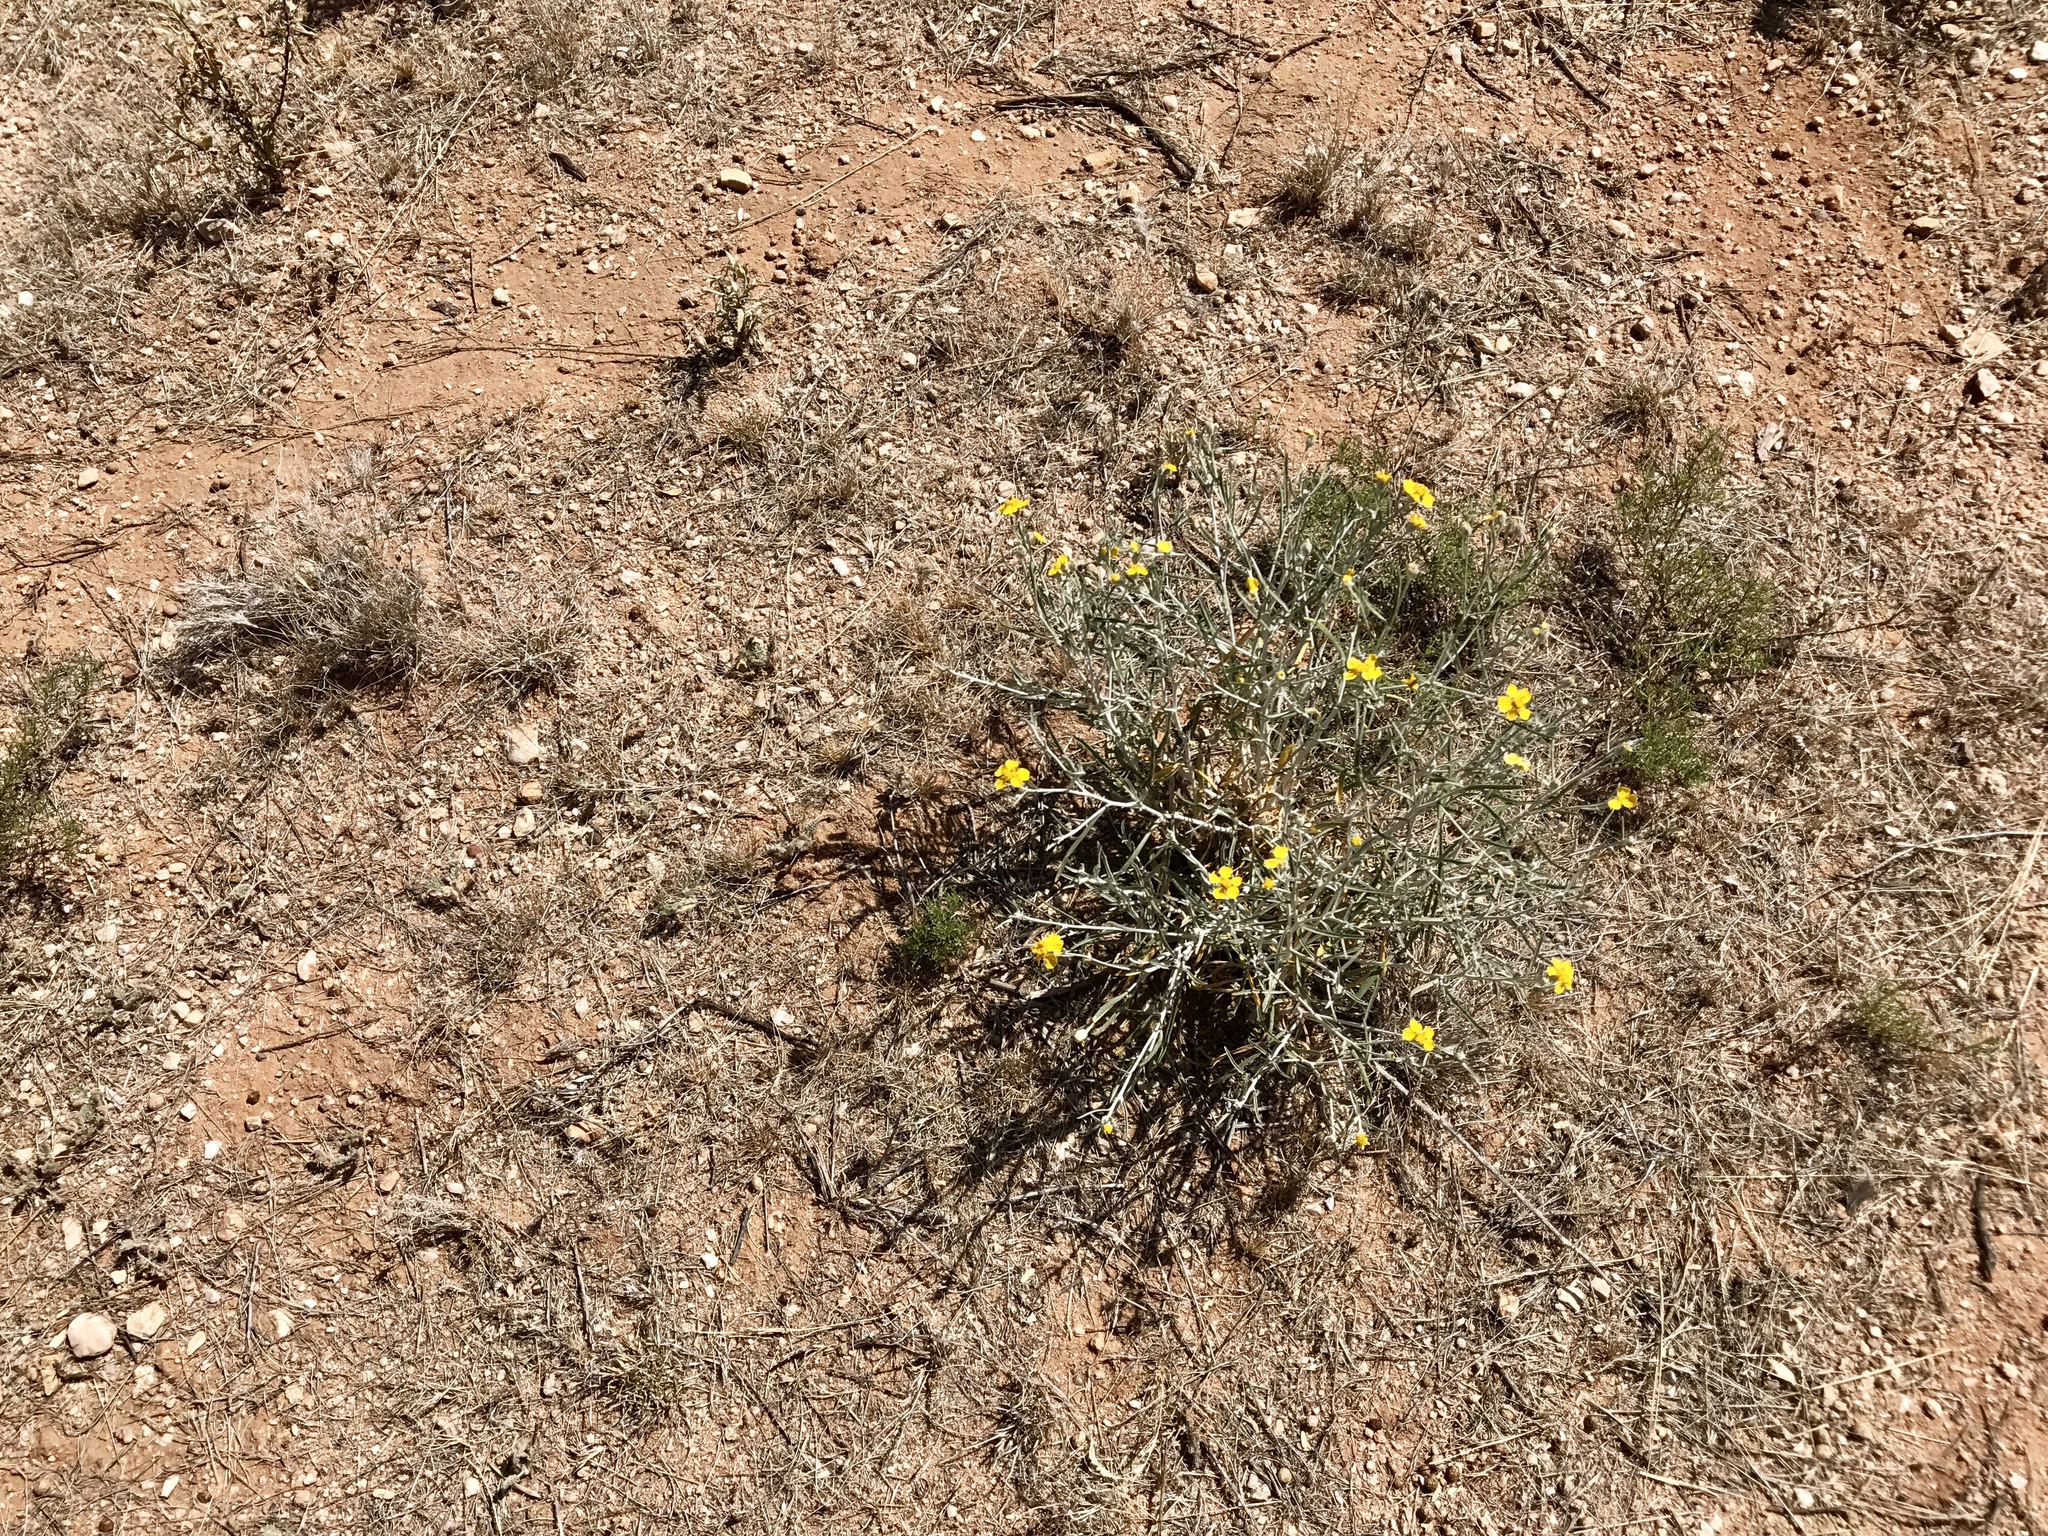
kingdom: Plantae
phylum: Tracheophyta
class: Magnoliopsida
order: Asterales
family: Asteraceae
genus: Psilostrophe
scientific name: Psilostrophe cooperi
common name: White-stem paper-flower
